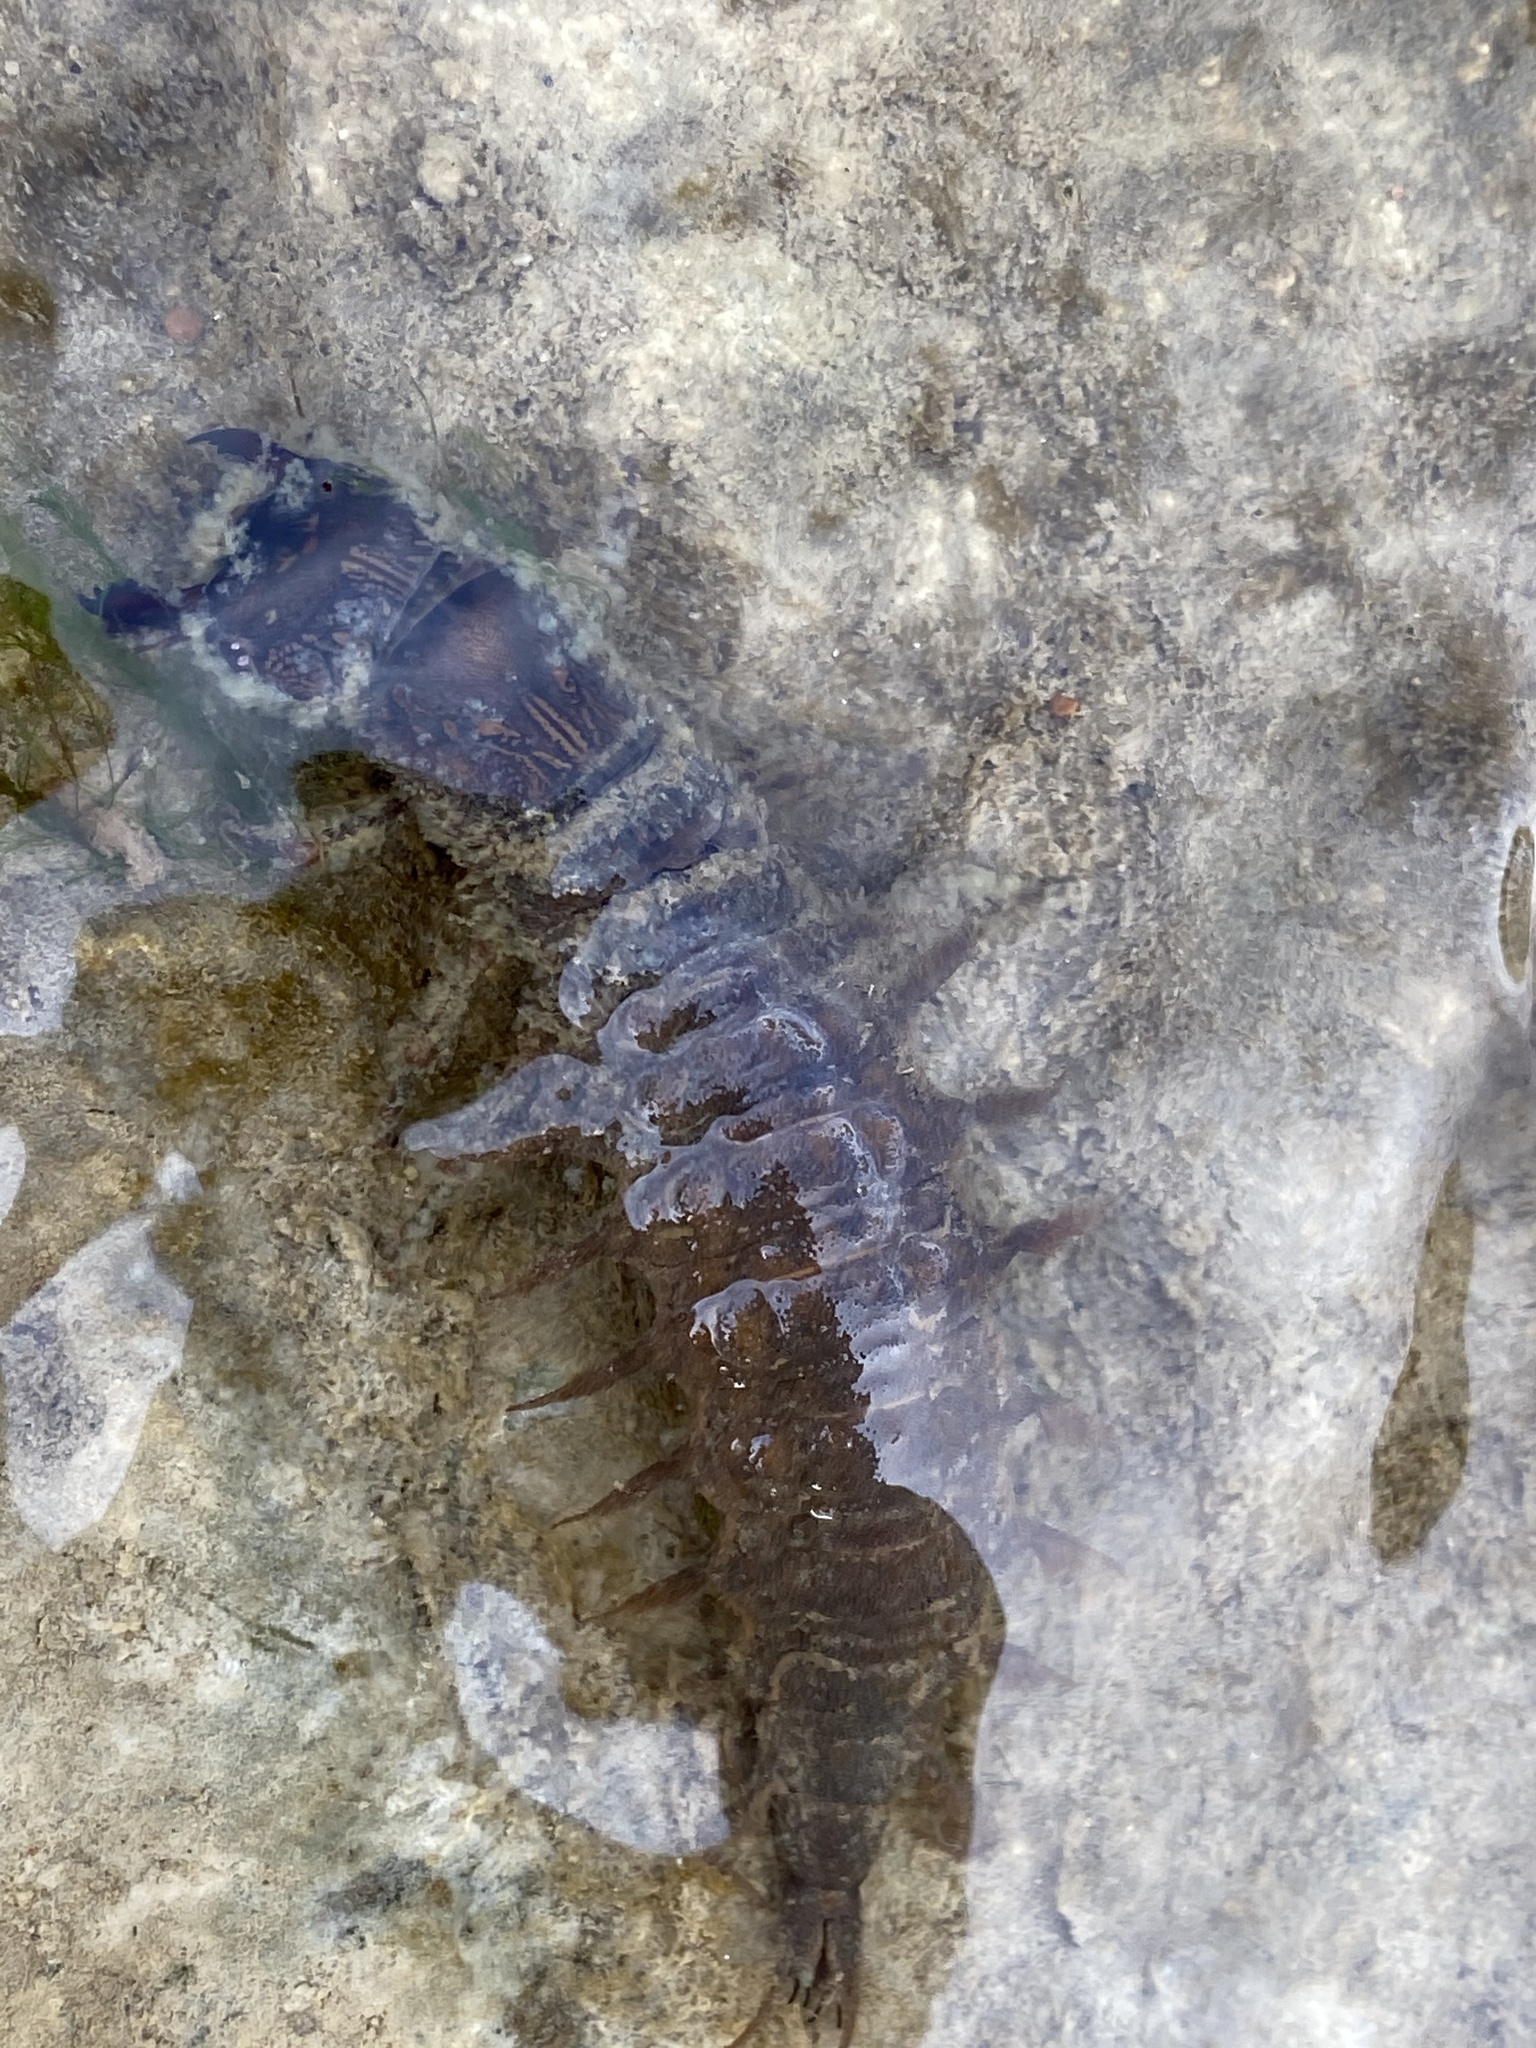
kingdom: Animalia
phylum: Arthropoda
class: Insecta
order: Megaloptera
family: Corydalidae
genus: Corydalus
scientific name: Corydalus cornutus
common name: Dobsonfly
